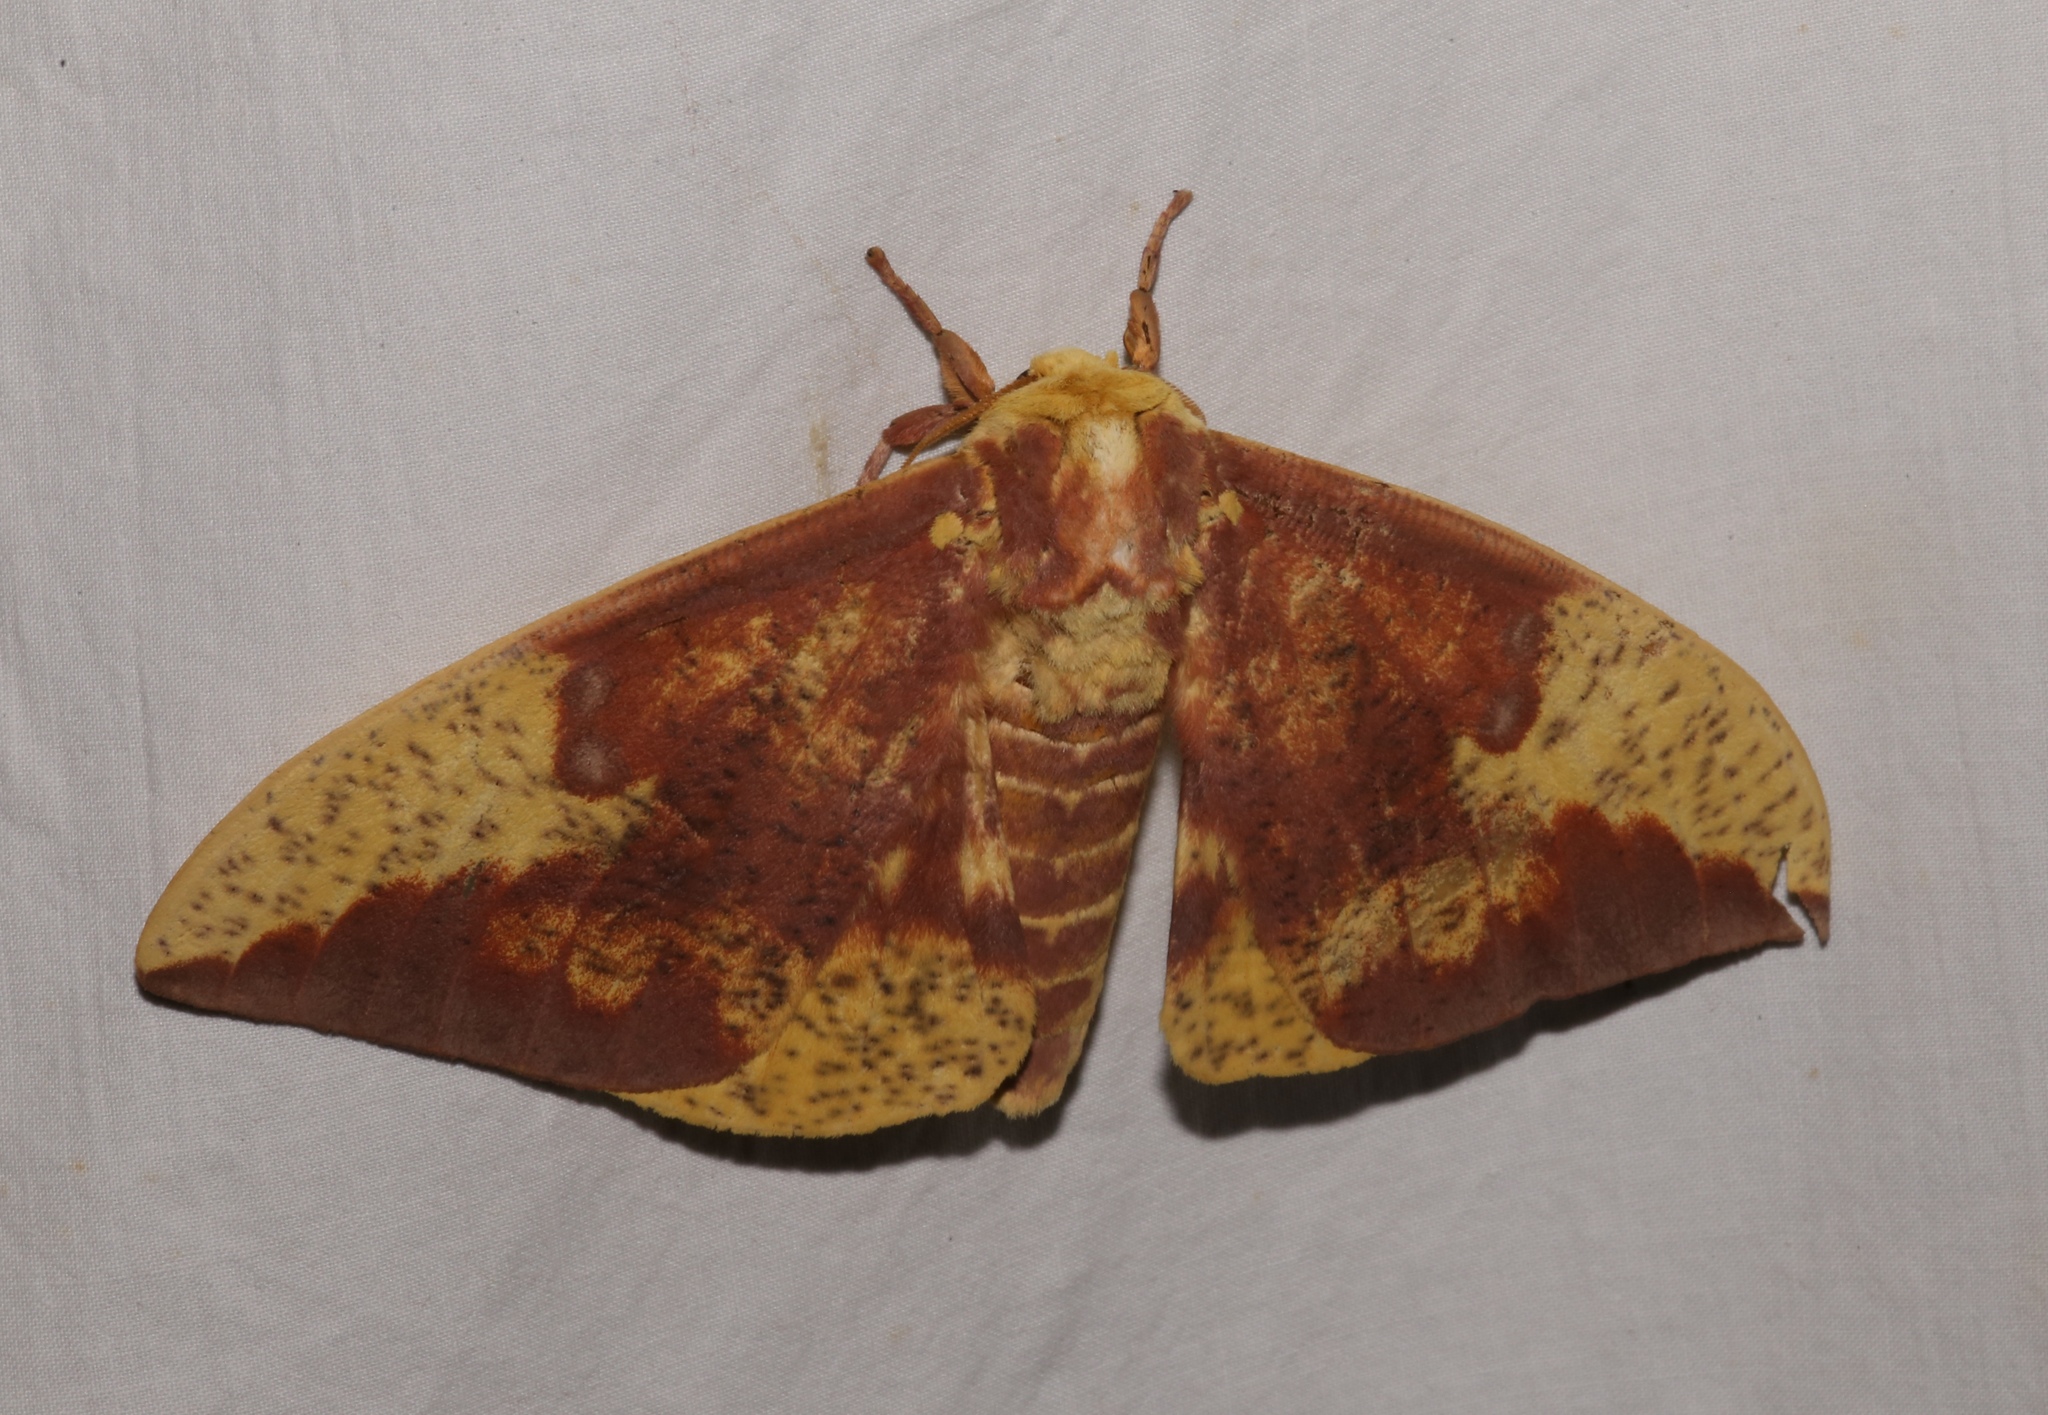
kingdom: Animalia
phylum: Arthropoda
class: Insecta
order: Lepidoptera
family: Saturniidae
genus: Eacles
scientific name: Eacles imperialis
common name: Imperial moth
